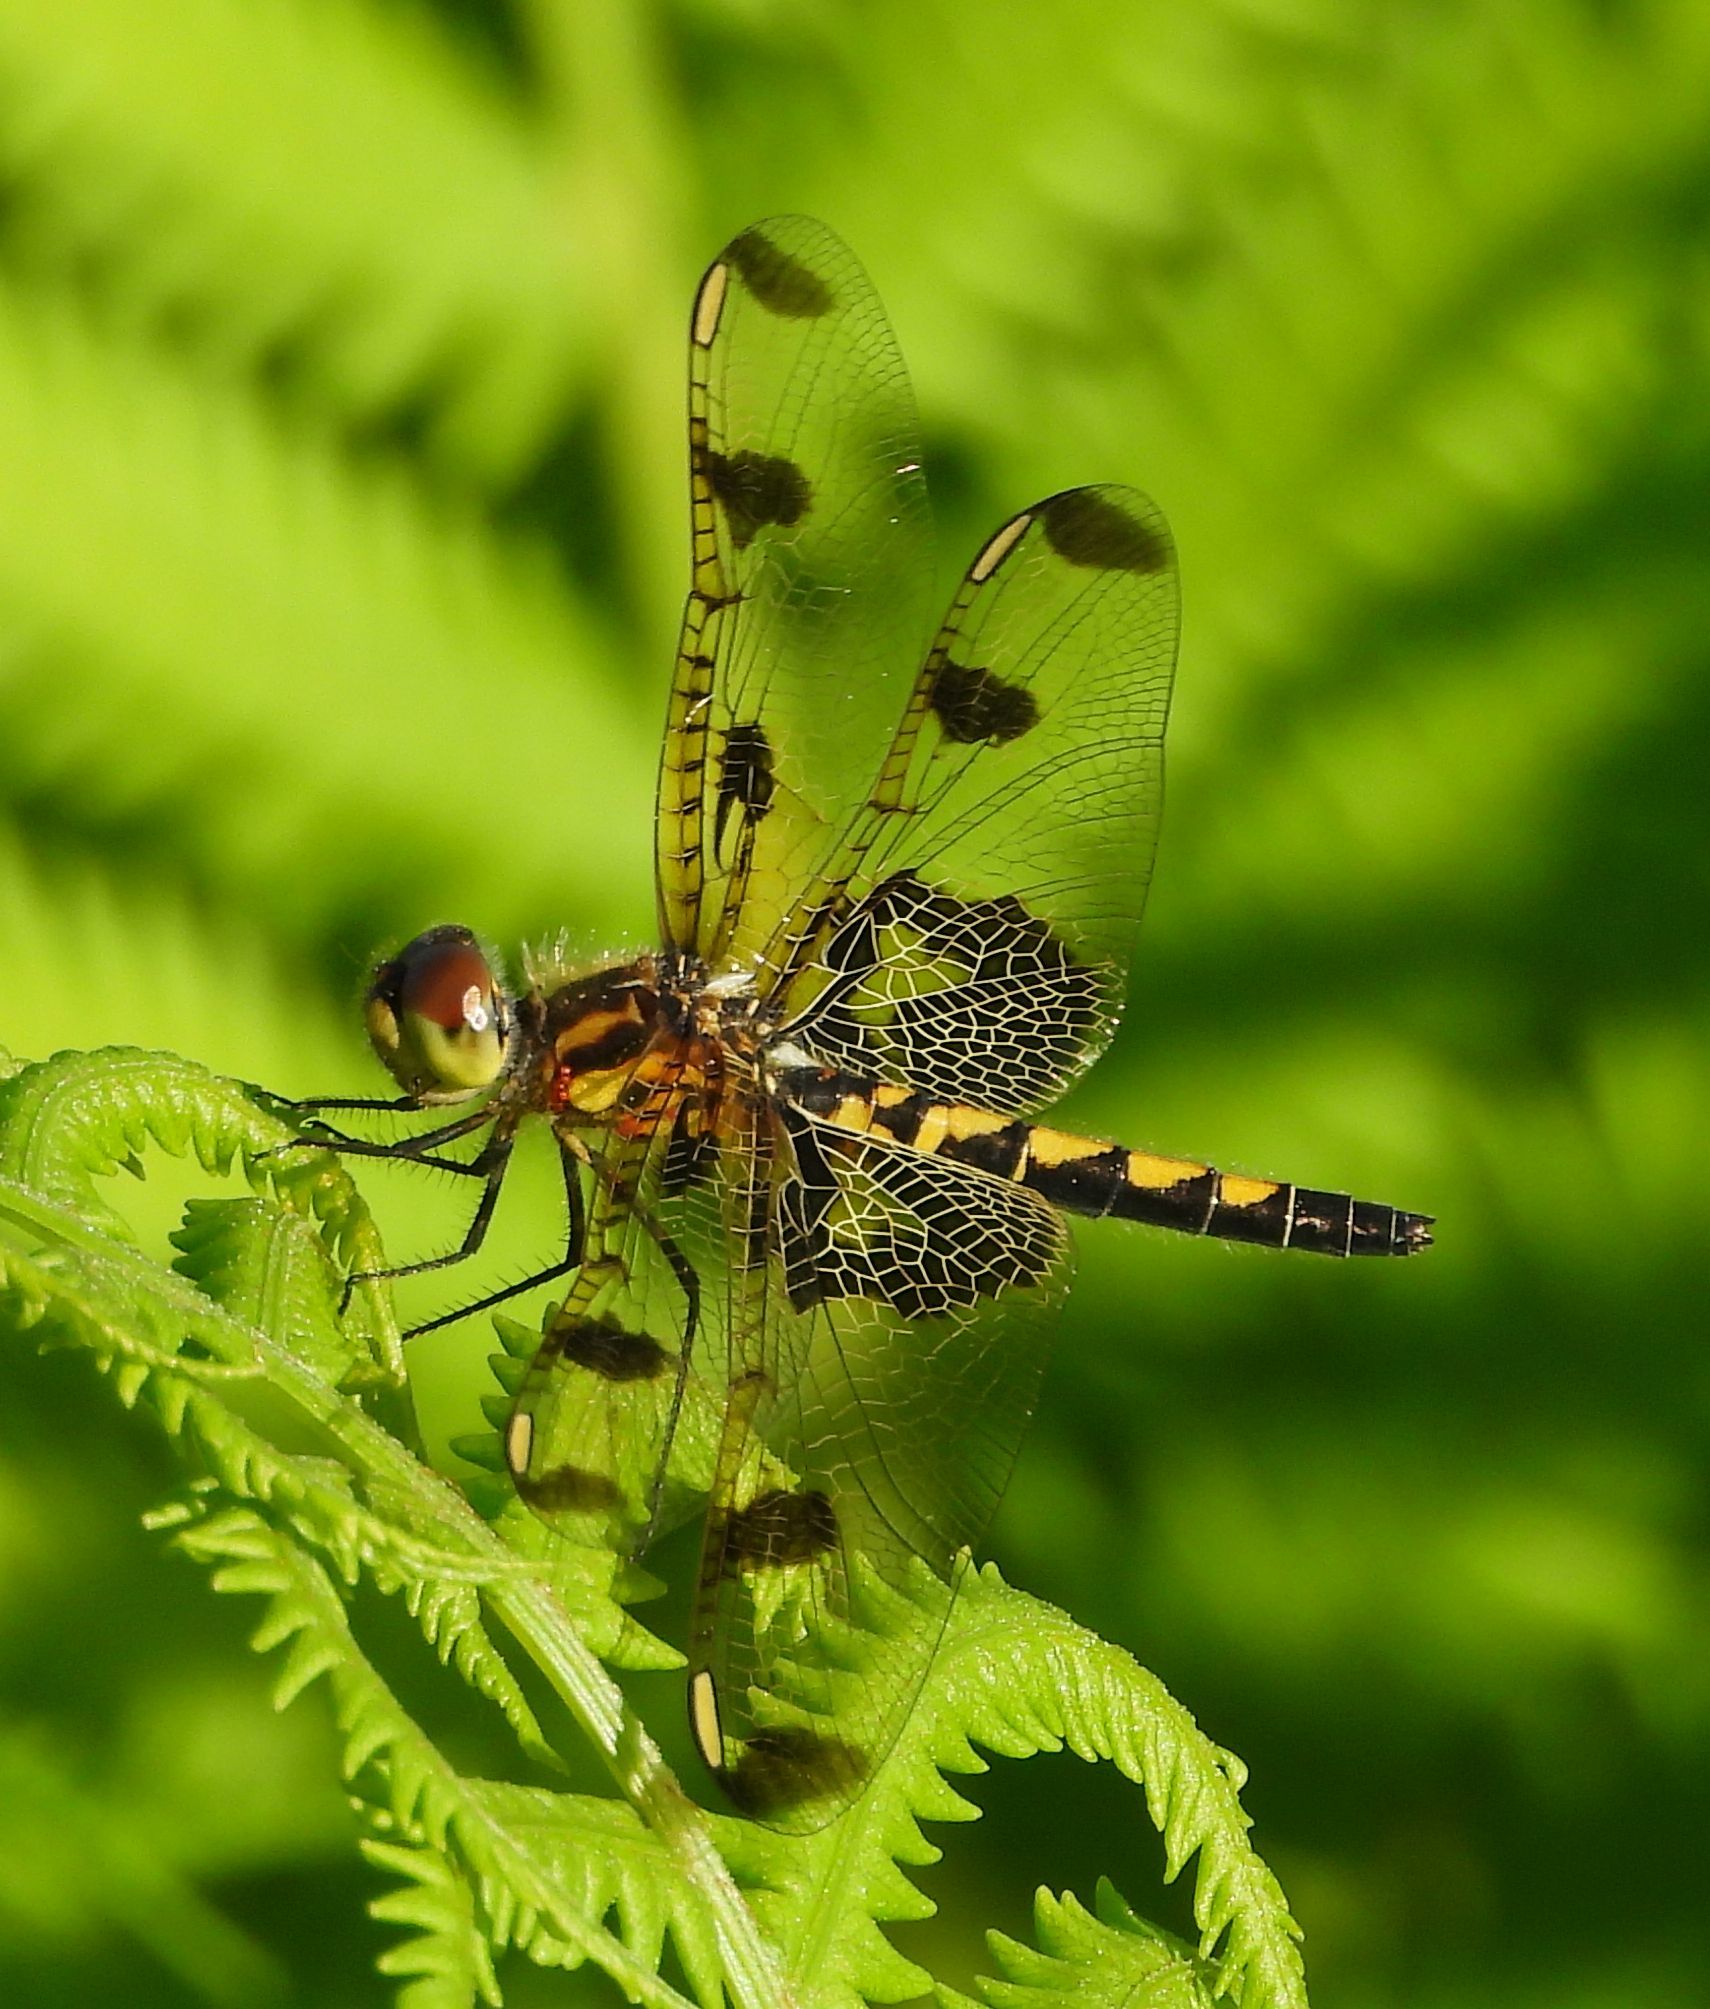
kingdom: Animalia
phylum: Arthropoda
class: Insecta
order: Odonata
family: Libellulidae
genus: Celithemis
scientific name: Celithemis elisa
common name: Calico pennant
